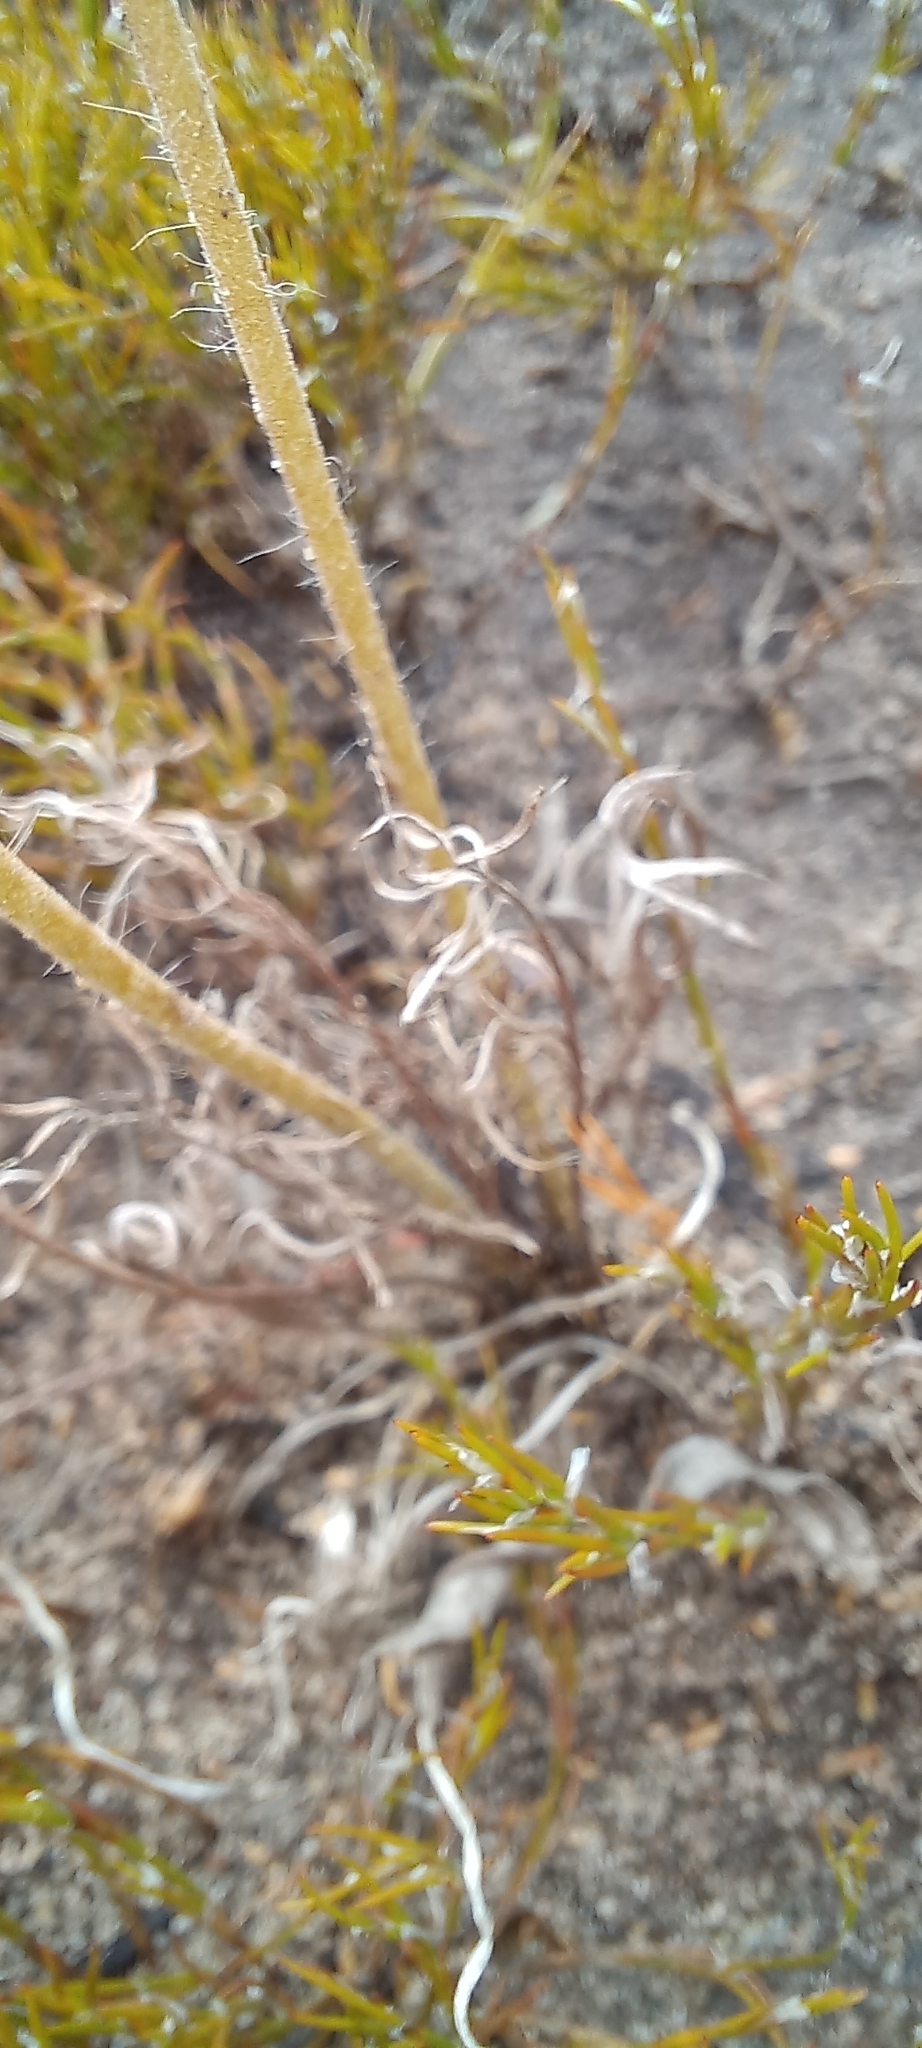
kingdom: Plantae
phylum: Tracheophyta
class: Magnoliopsida
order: Geraniales
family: Geraniaceae
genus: Pelargonium
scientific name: Pelargonium caledonicum
